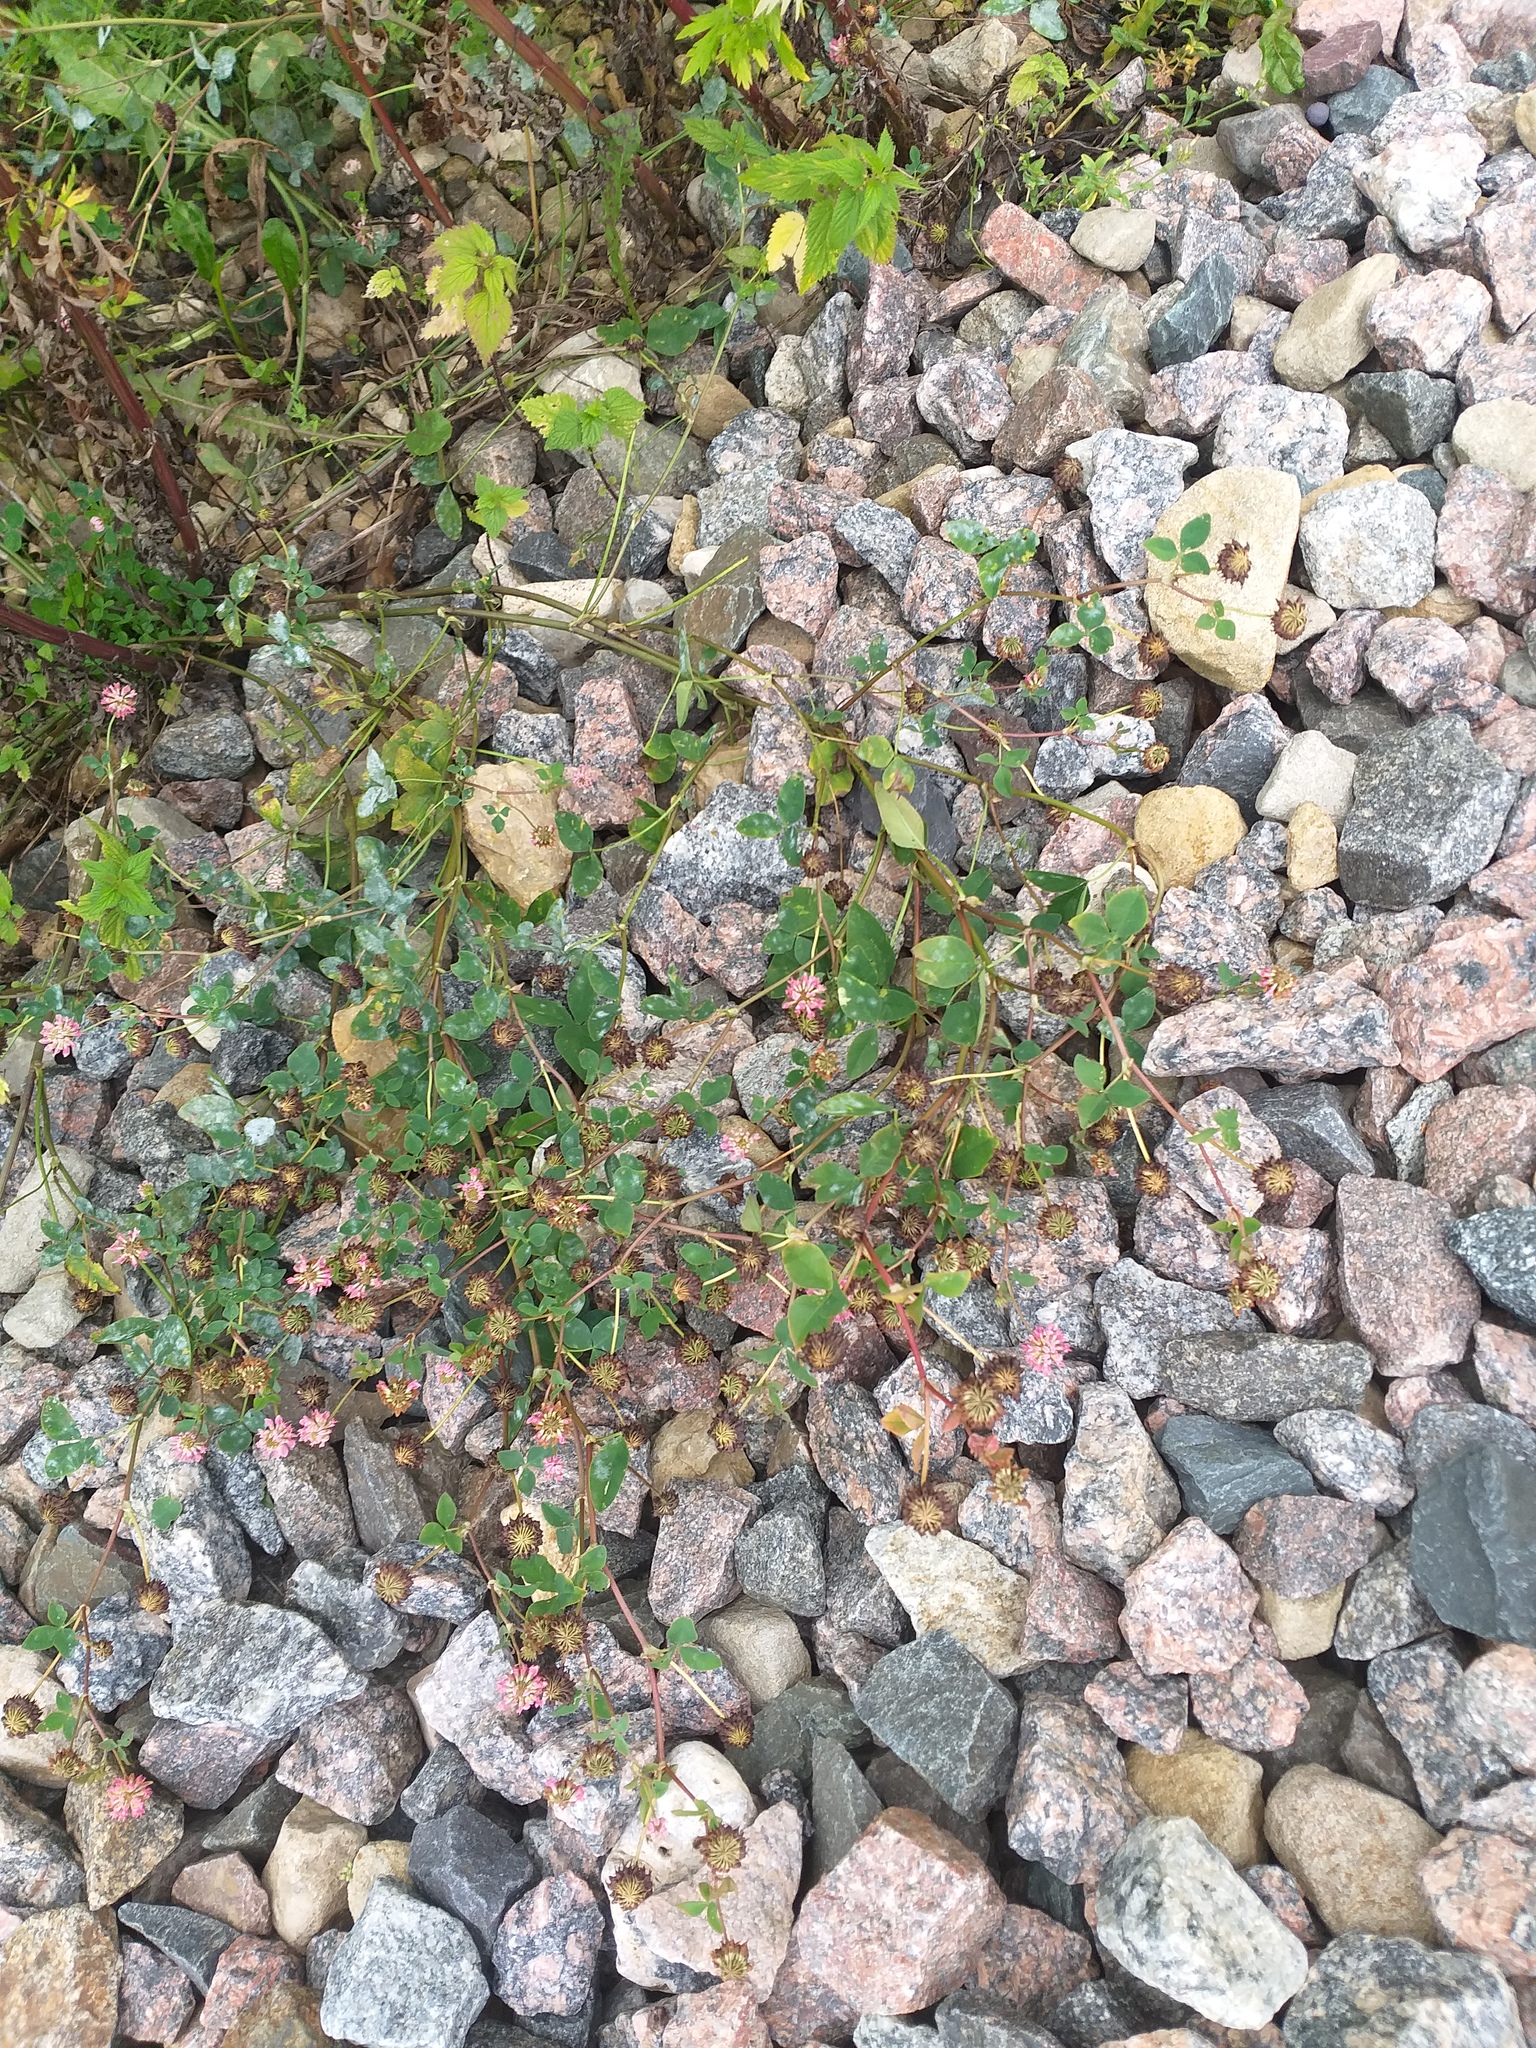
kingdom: Plantae
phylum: Tracheophyta
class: Magnoliopsida
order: Fabales
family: Fabaceae
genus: Trifolium
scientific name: Trifolium hybridum
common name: Alsike clover
